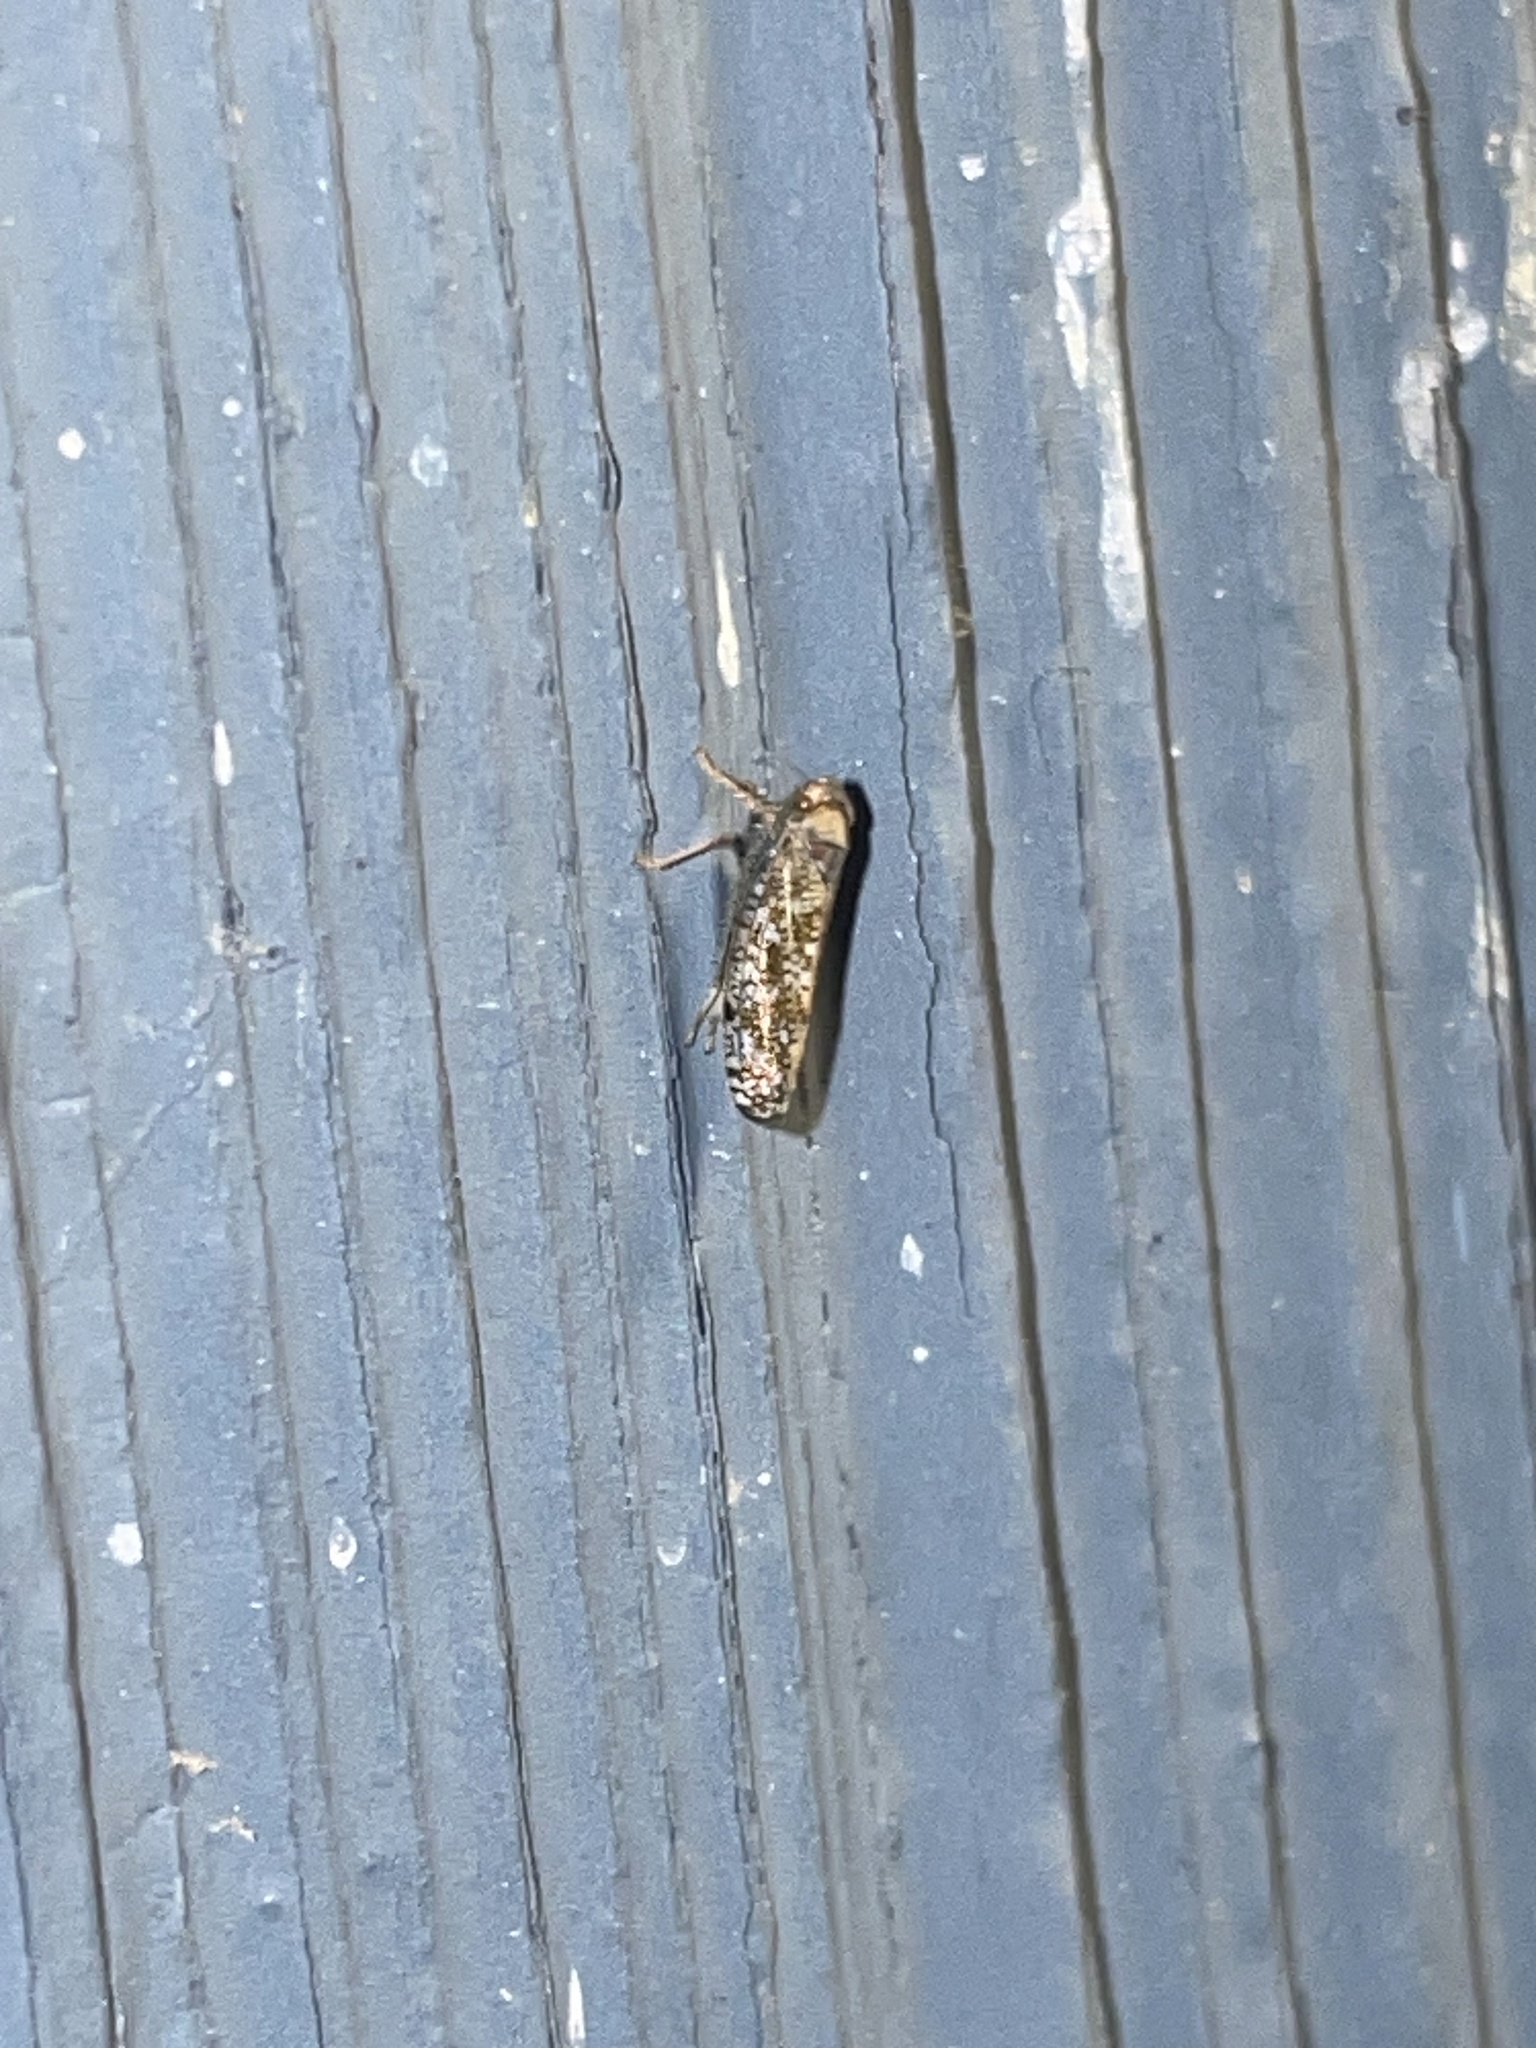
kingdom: Animalia
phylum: Arthropoda
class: Insecta
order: Hemiptera
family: Cicadellidae
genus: Orientus
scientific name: Orientus ishidae
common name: Japanese leafhopper
